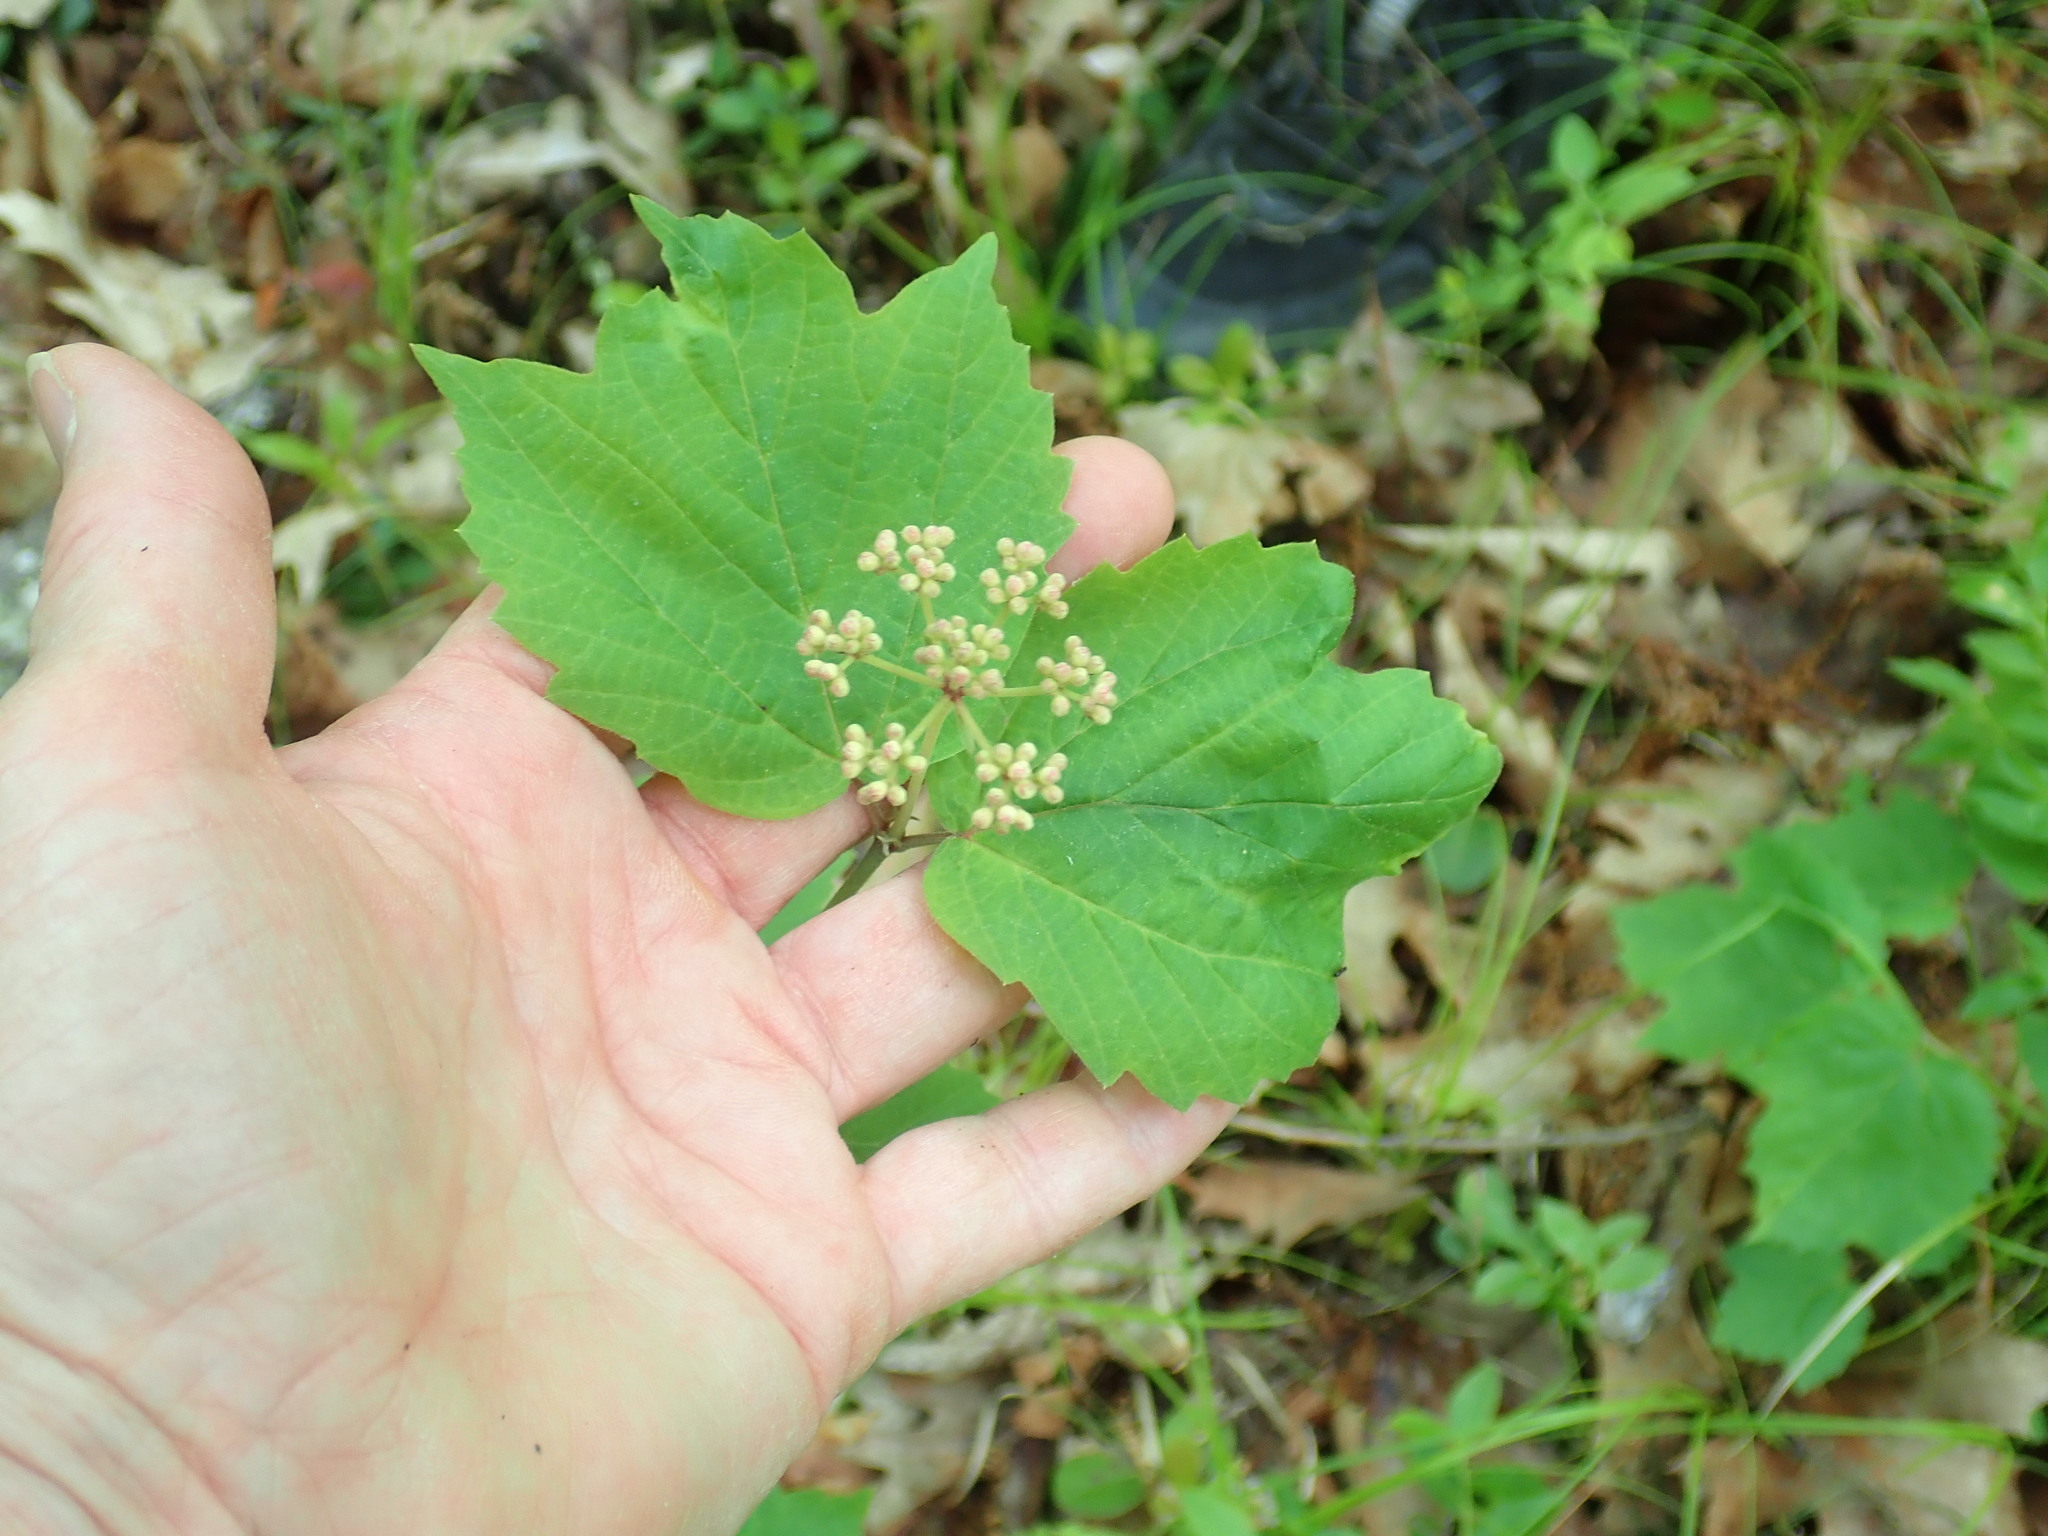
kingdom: Plantae
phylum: Tracheophyta
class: Magnoliopsida
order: Dipsacales
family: Viburnaceae
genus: Viburnum
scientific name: Viburnum acerifolium
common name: Dockmackie
